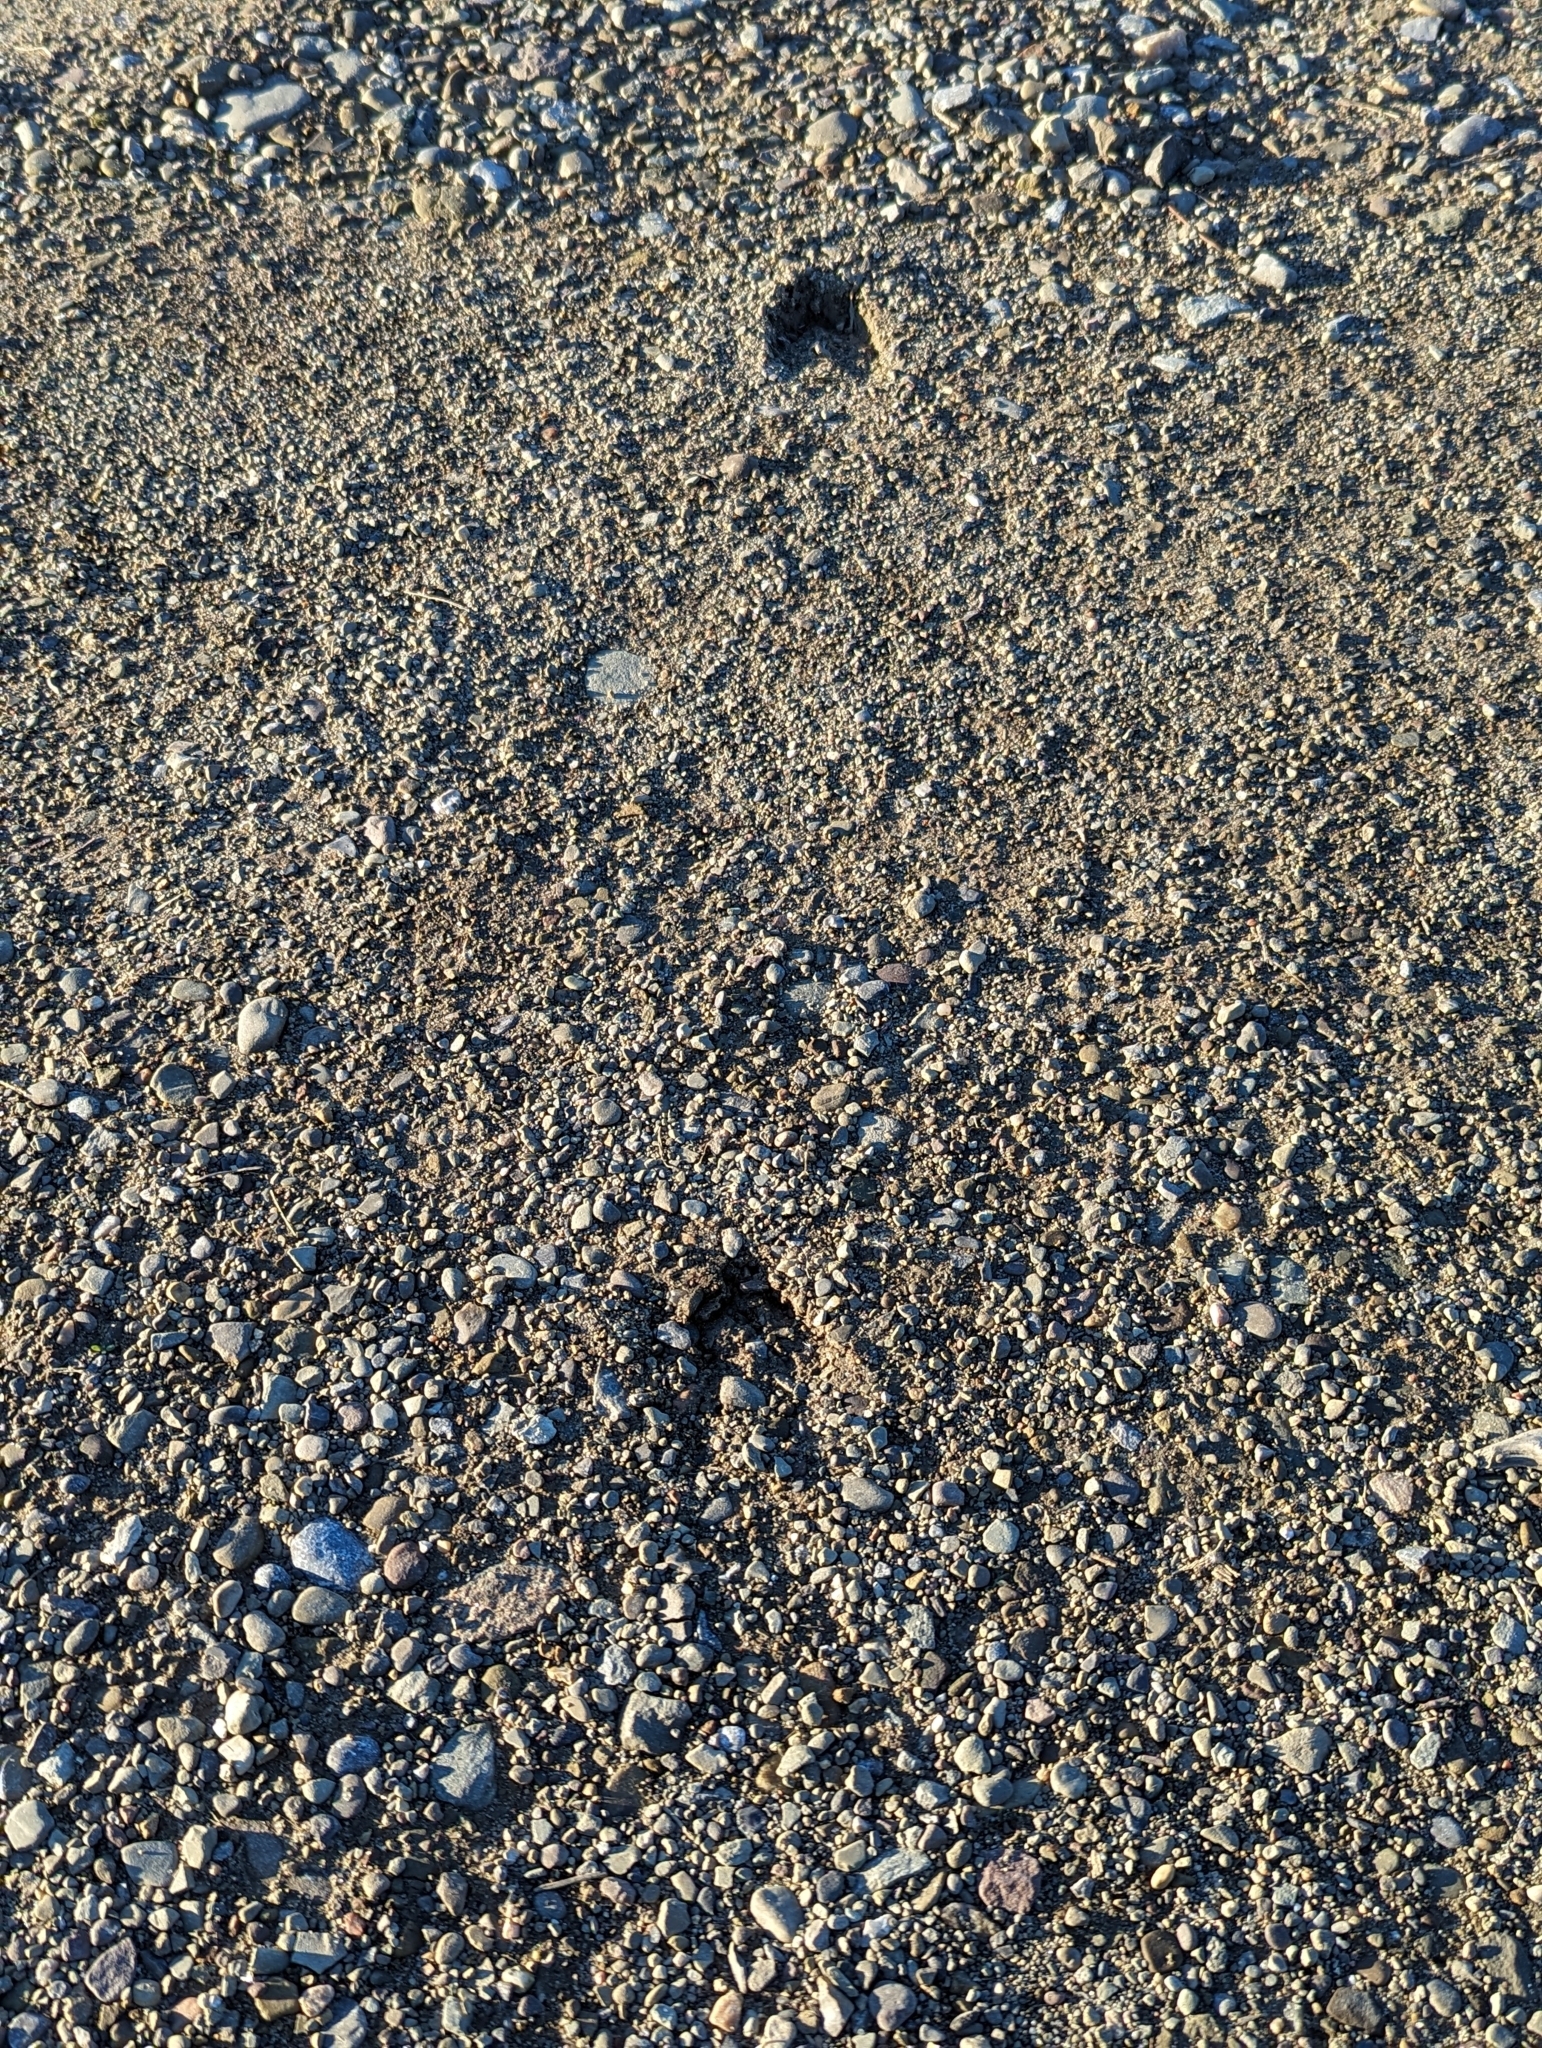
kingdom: Animalia
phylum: Chordata
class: Mammalia
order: Artiodactyla
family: Cervidae
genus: Odocoileus
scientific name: Odocoileus virginianus
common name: White-tailed deer
